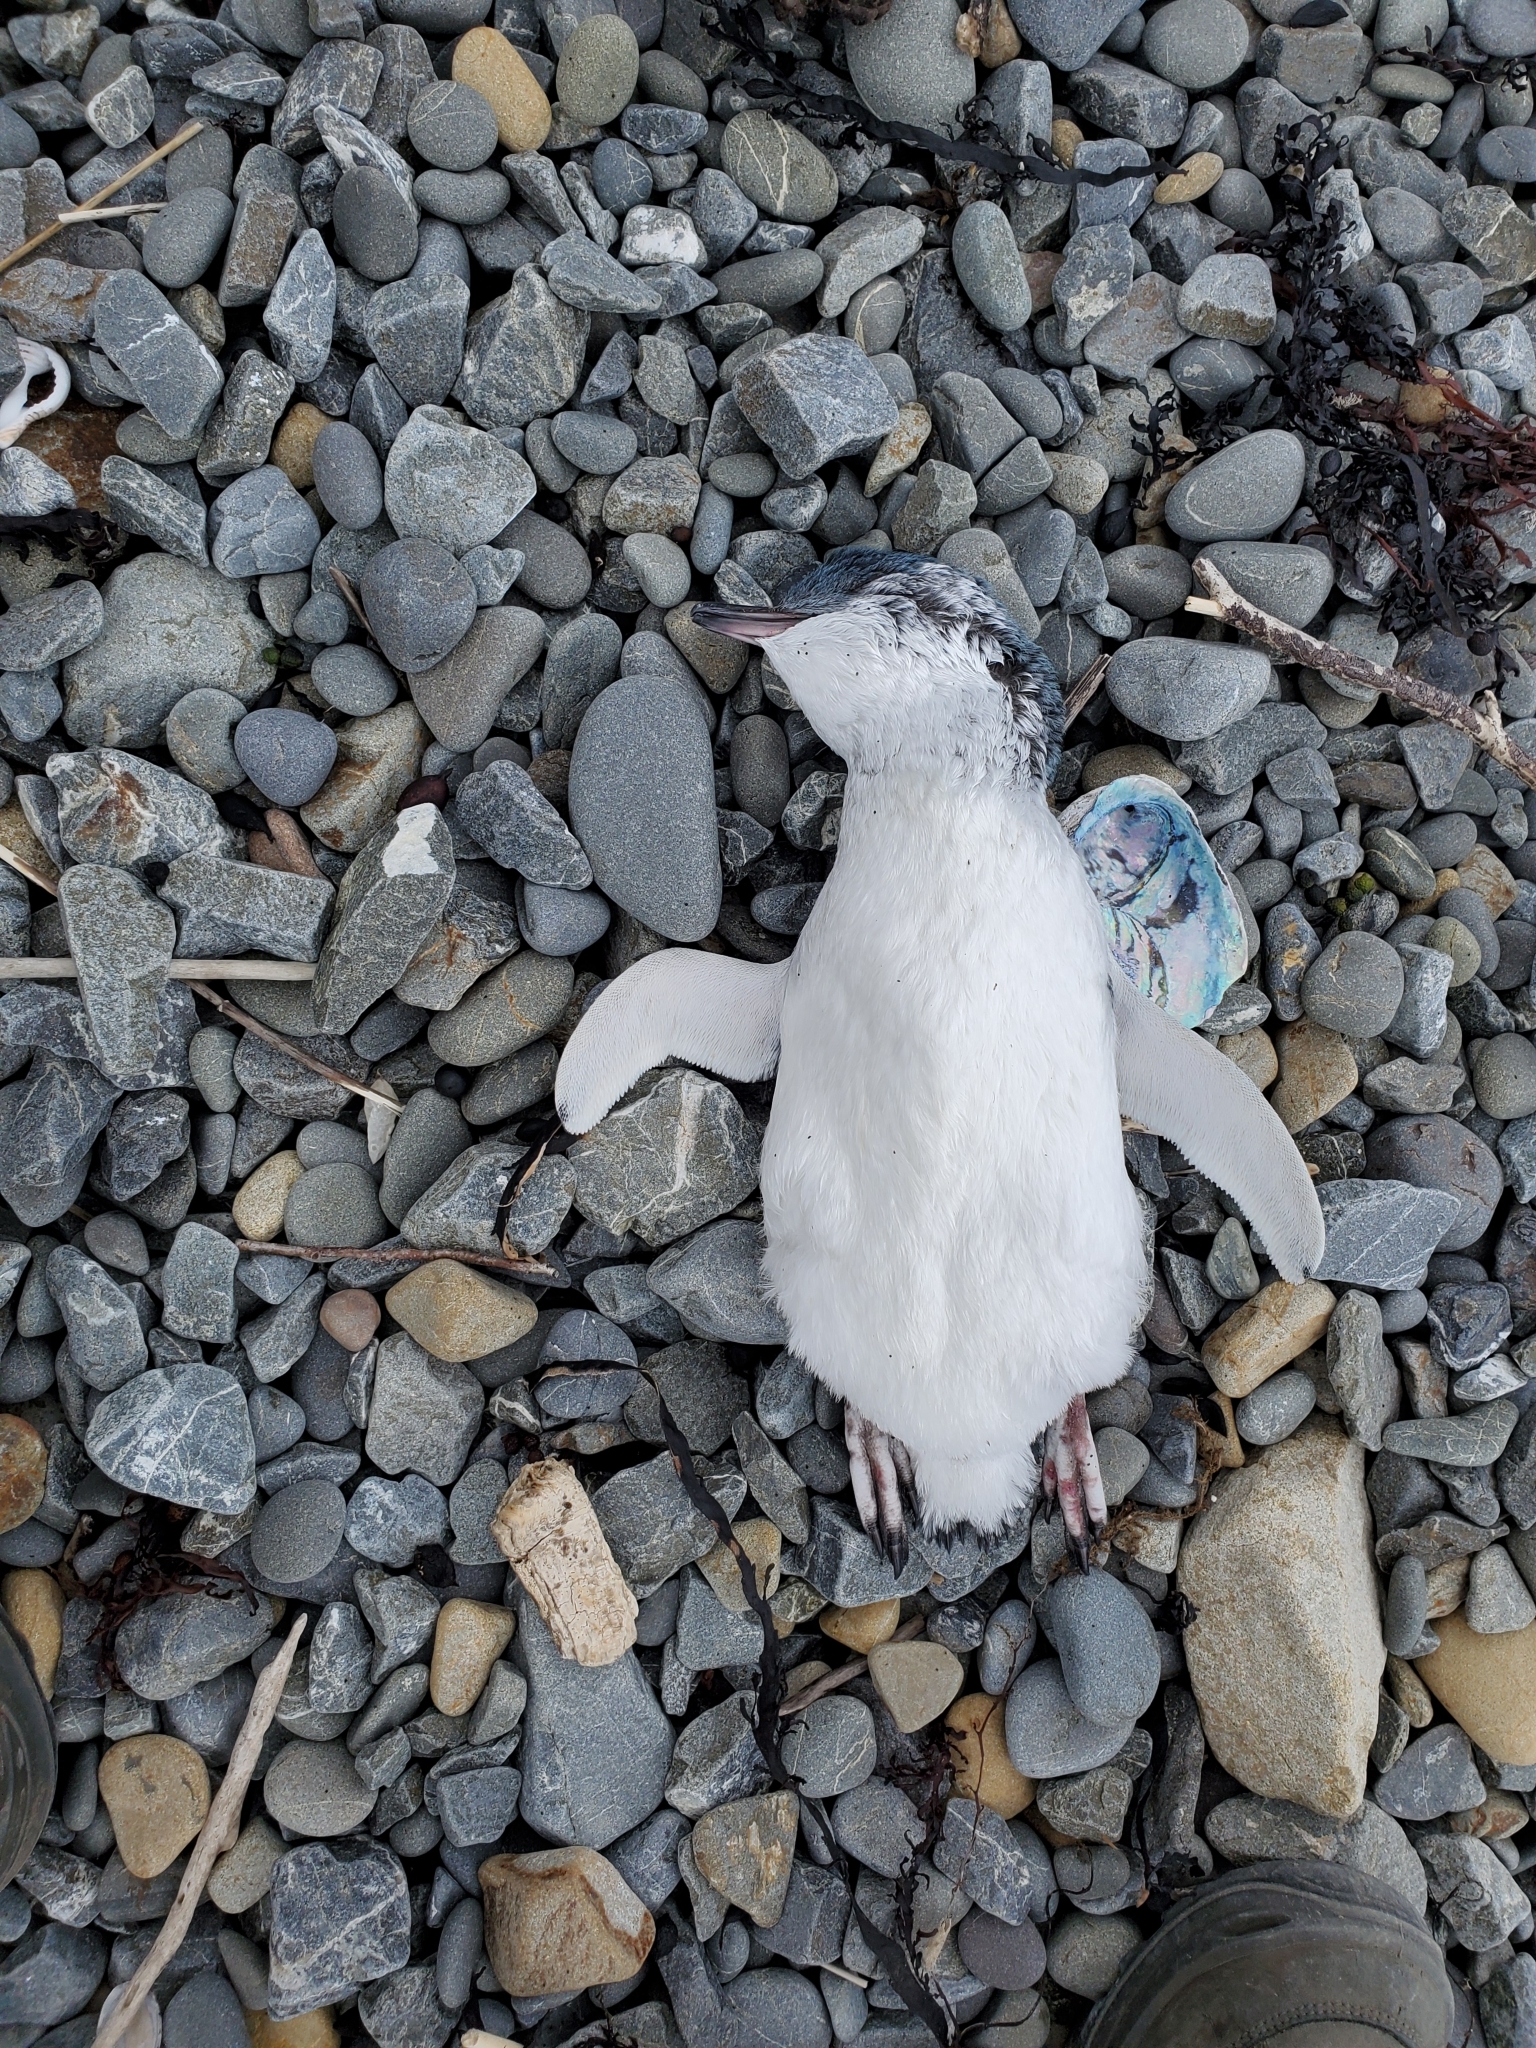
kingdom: Animalia
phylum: Chordata
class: Aves
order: Sphenisciformes
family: Spheniscidae
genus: Eudyptula
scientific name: Eudyptula minor
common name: Little penguin
